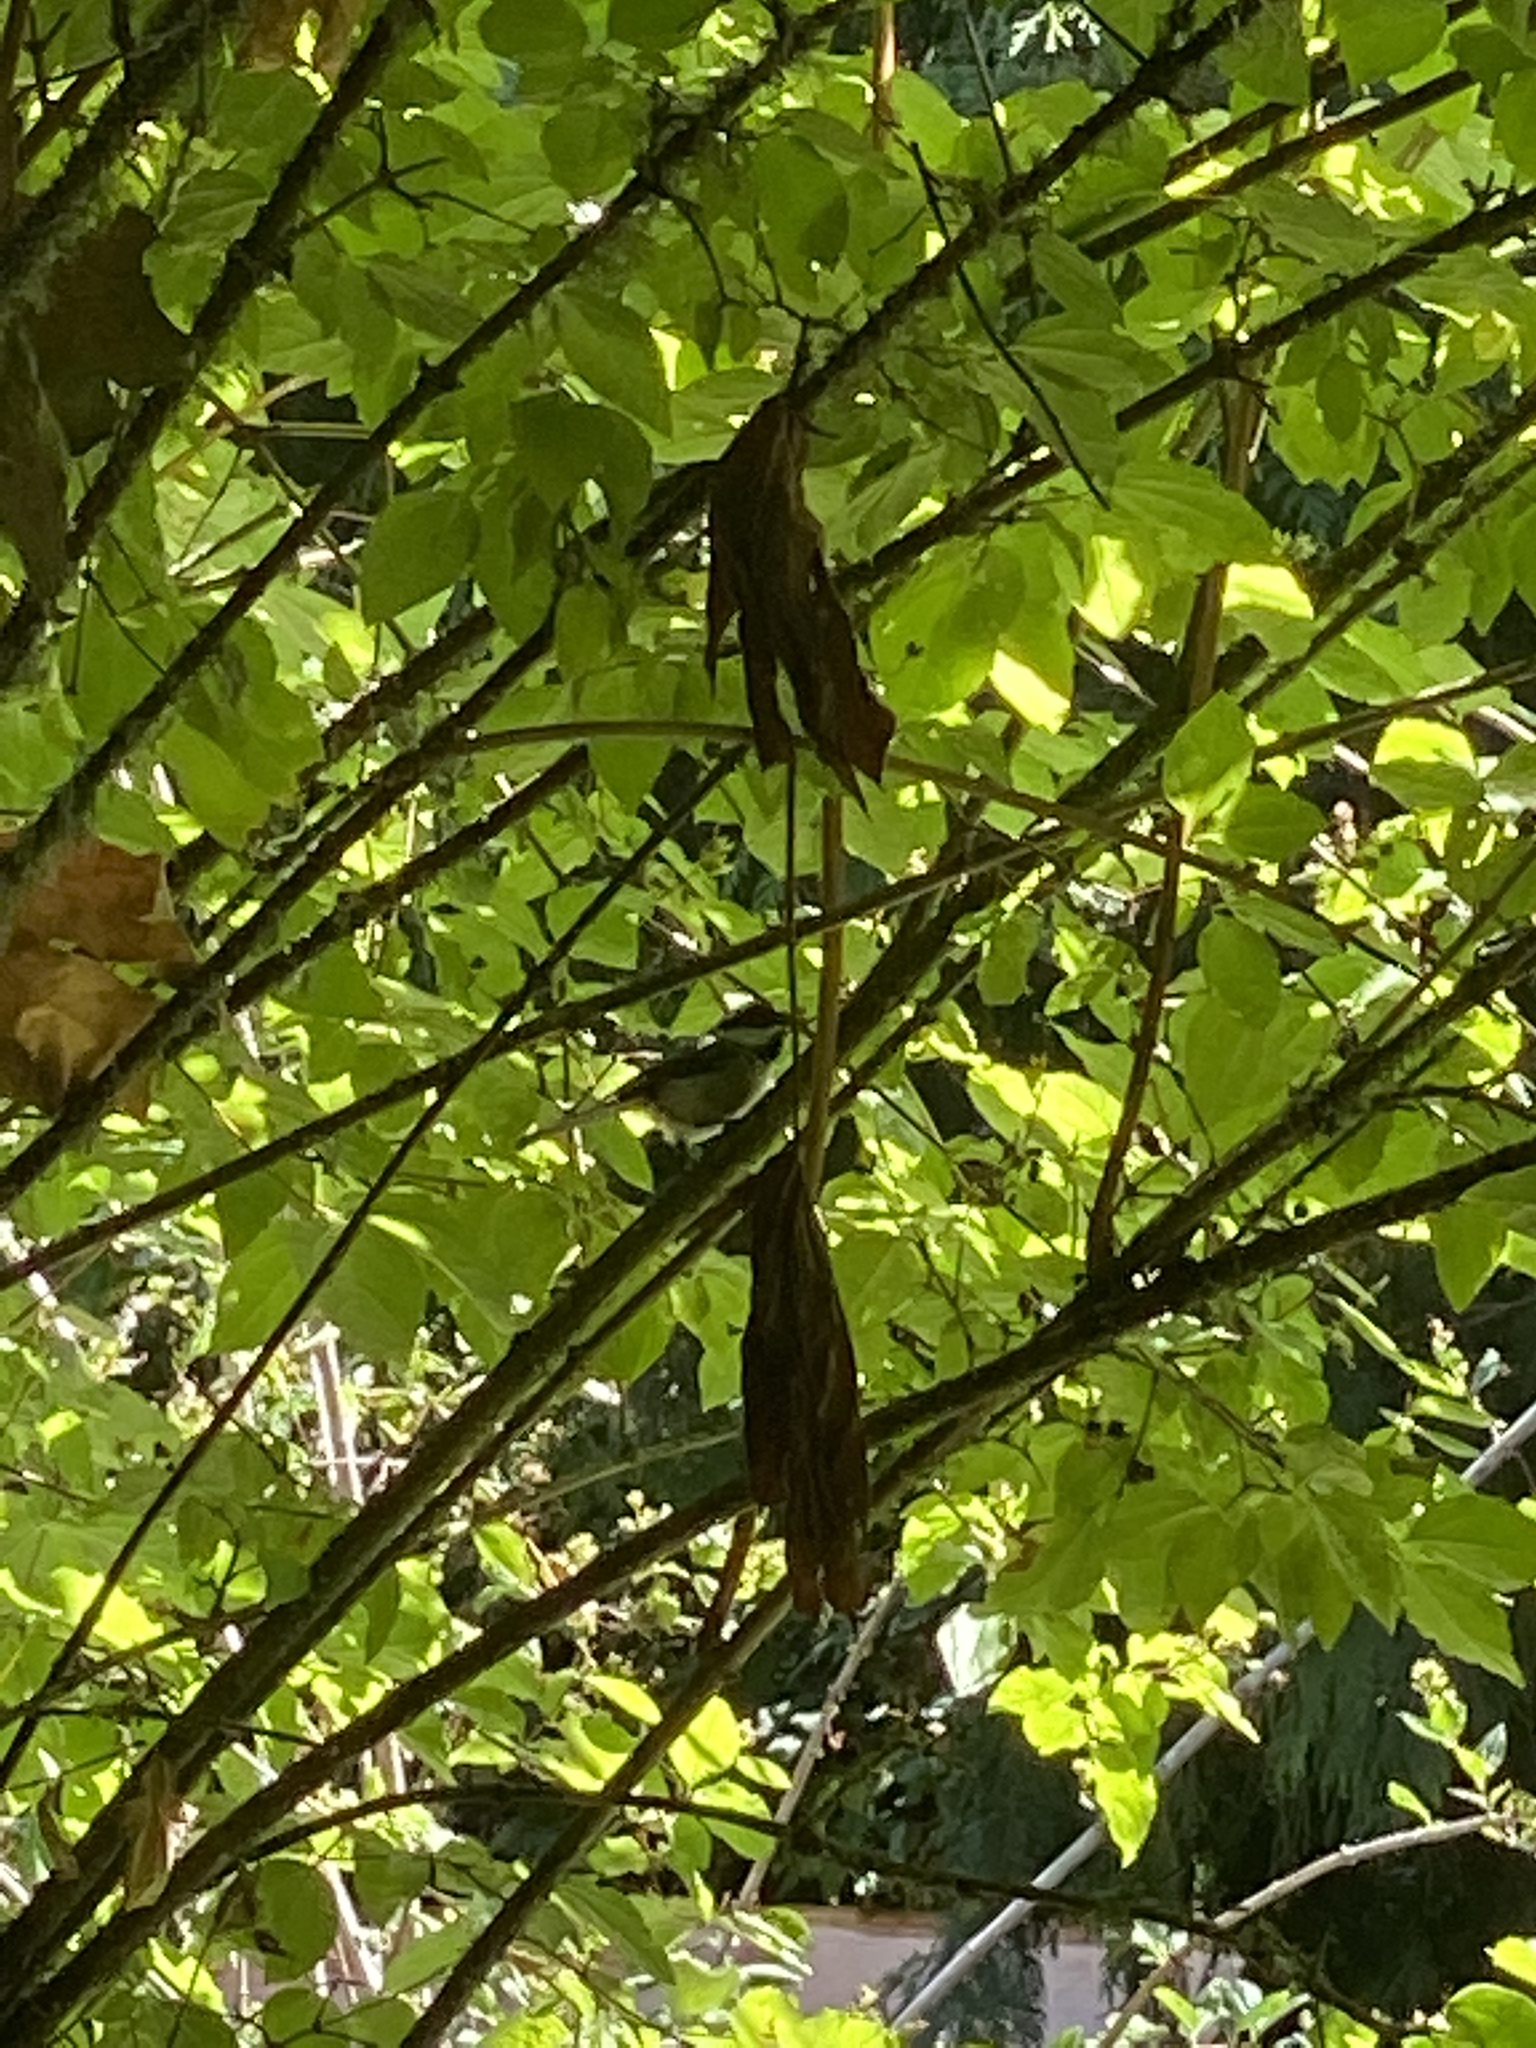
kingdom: Animalia
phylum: Chordata
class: Aves
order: Passeriformes
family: Paridae
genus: Poecile
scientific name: Poecile atricapillus
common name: Black-capped chickadee
